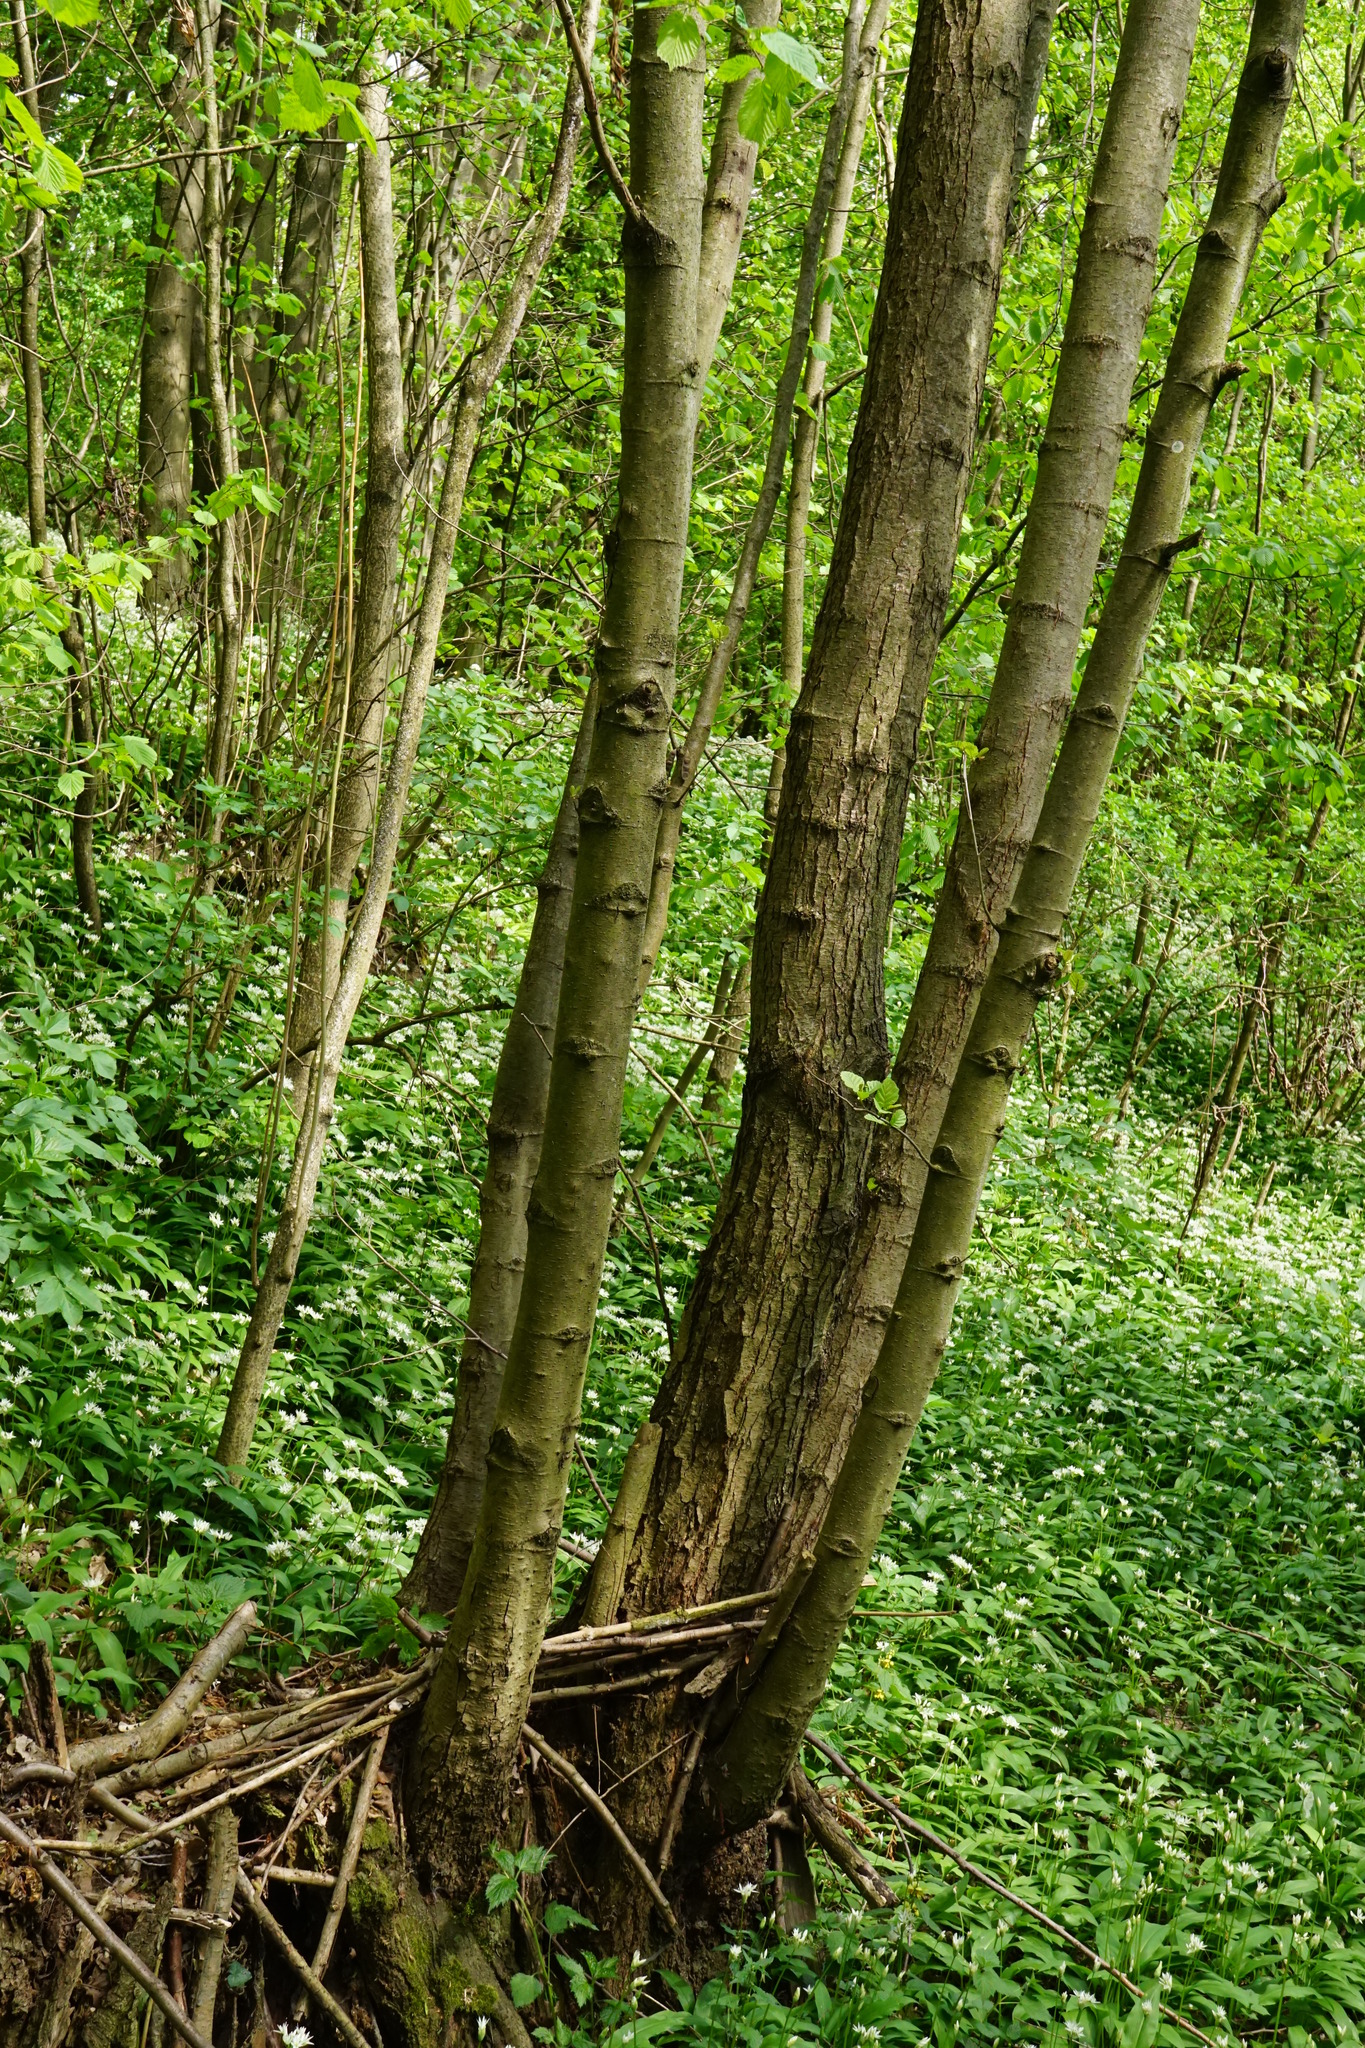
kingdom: Plantae
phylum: Tracheophyta
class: Magnoliopsida
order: Fagales
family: Betulaceae
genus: Alnus
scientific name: Alnus glutinosa
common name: Black alder
